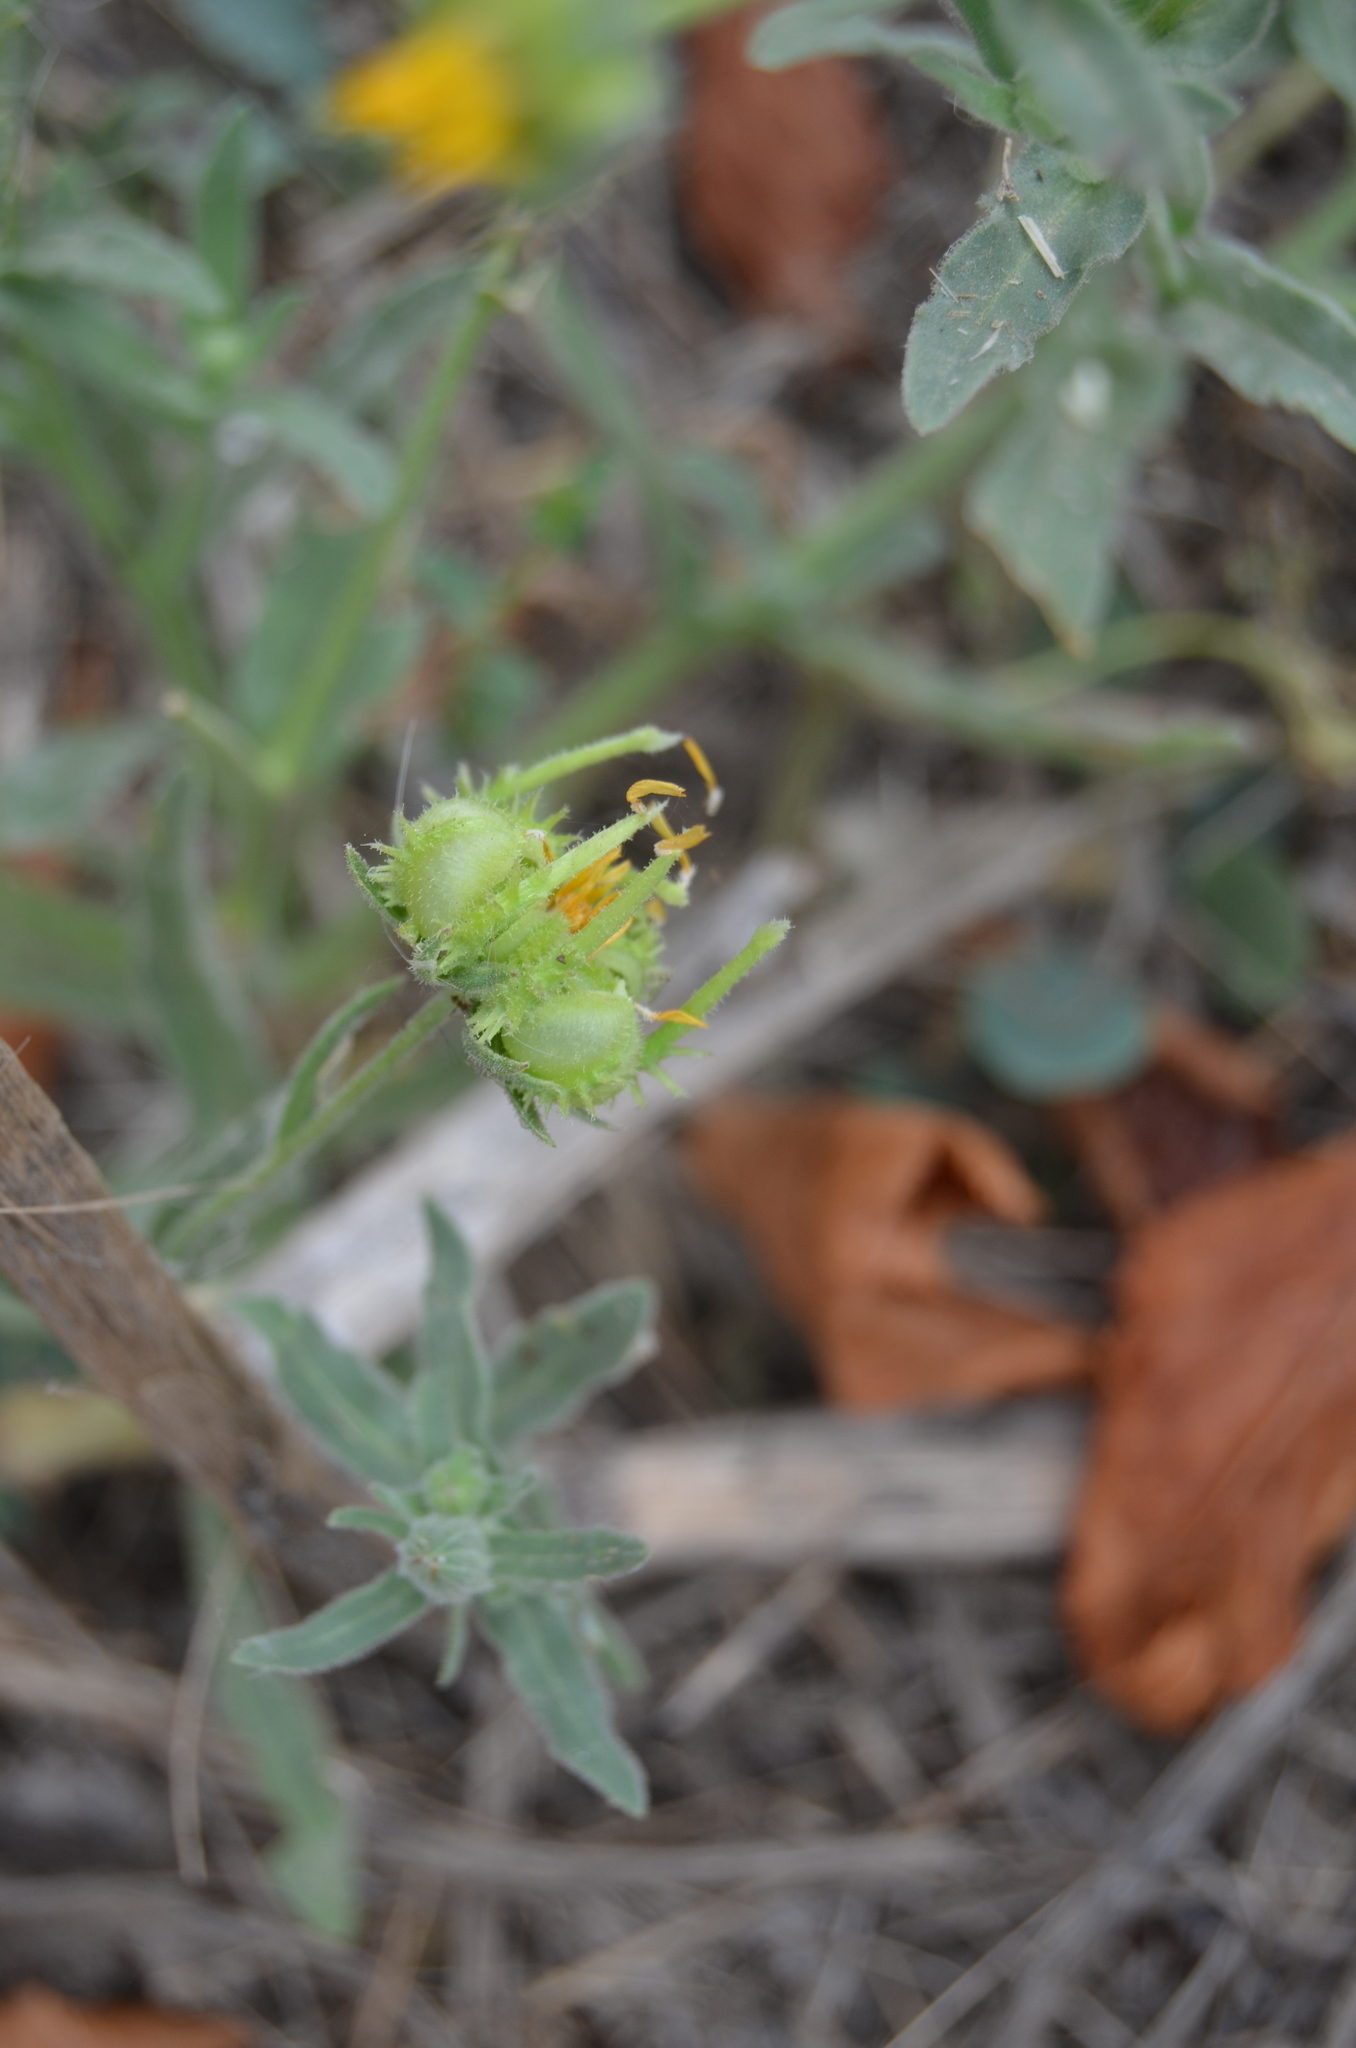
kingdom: Plantae
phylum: Tracheophyta
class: Magnoliopsida
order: Asterales
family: Asteraceae
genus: Calendula
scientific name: Calendula arvensis
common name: Field marigold
